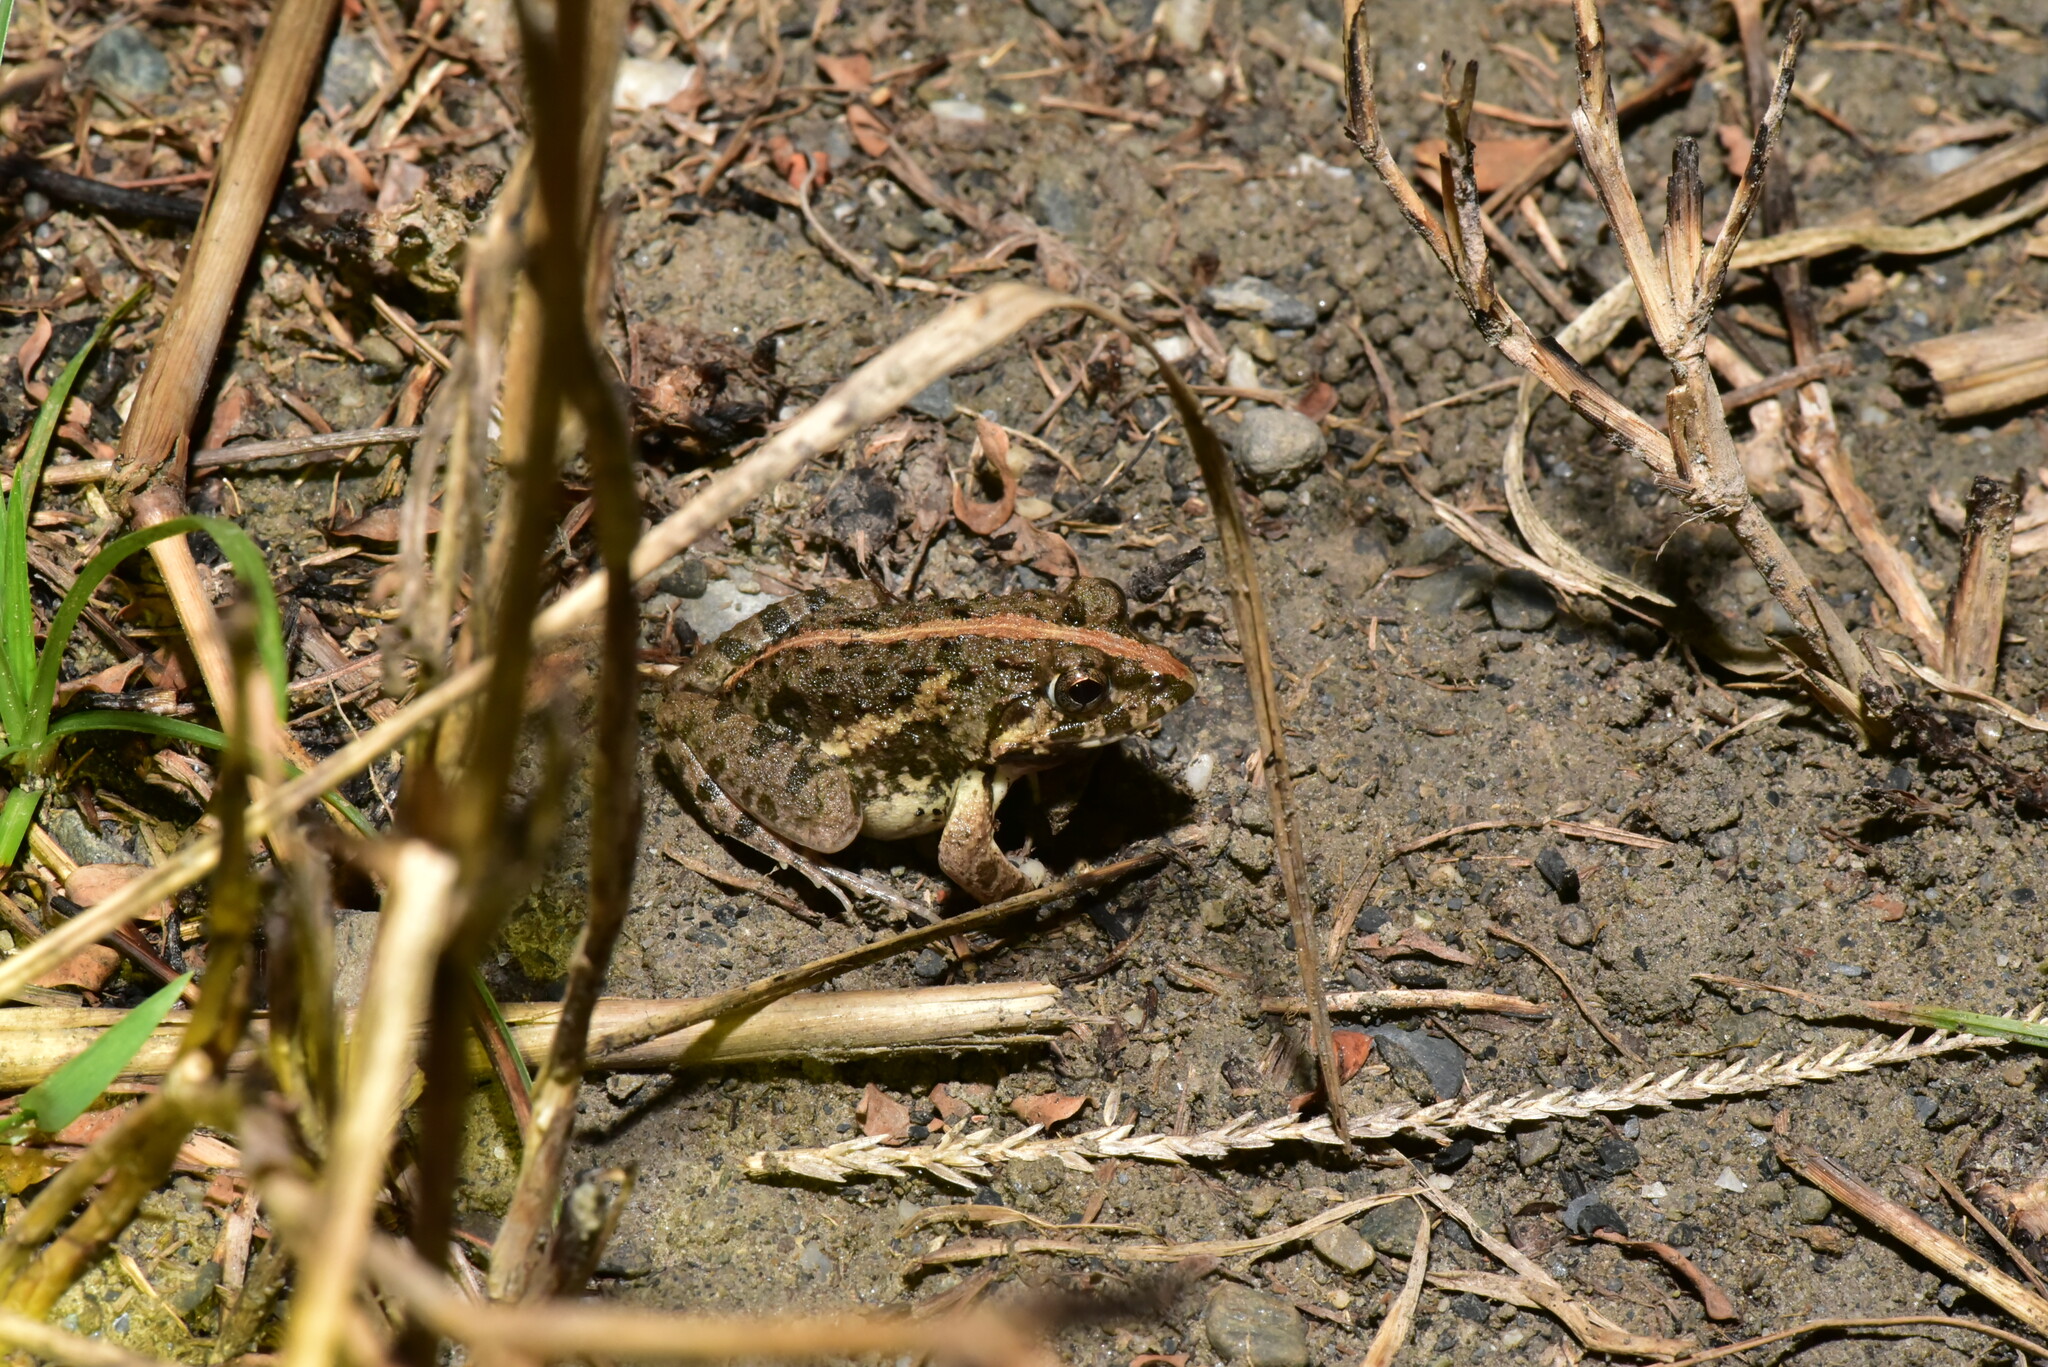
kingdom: Animalia
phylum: Chordata
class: Amphibia
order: Anura
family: Dicroglossidae
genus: Fejervarya
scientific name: Fejervarya limnocharis
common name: Asian grass frog/common pond frog/field frog/grass frog/indian rice frog
